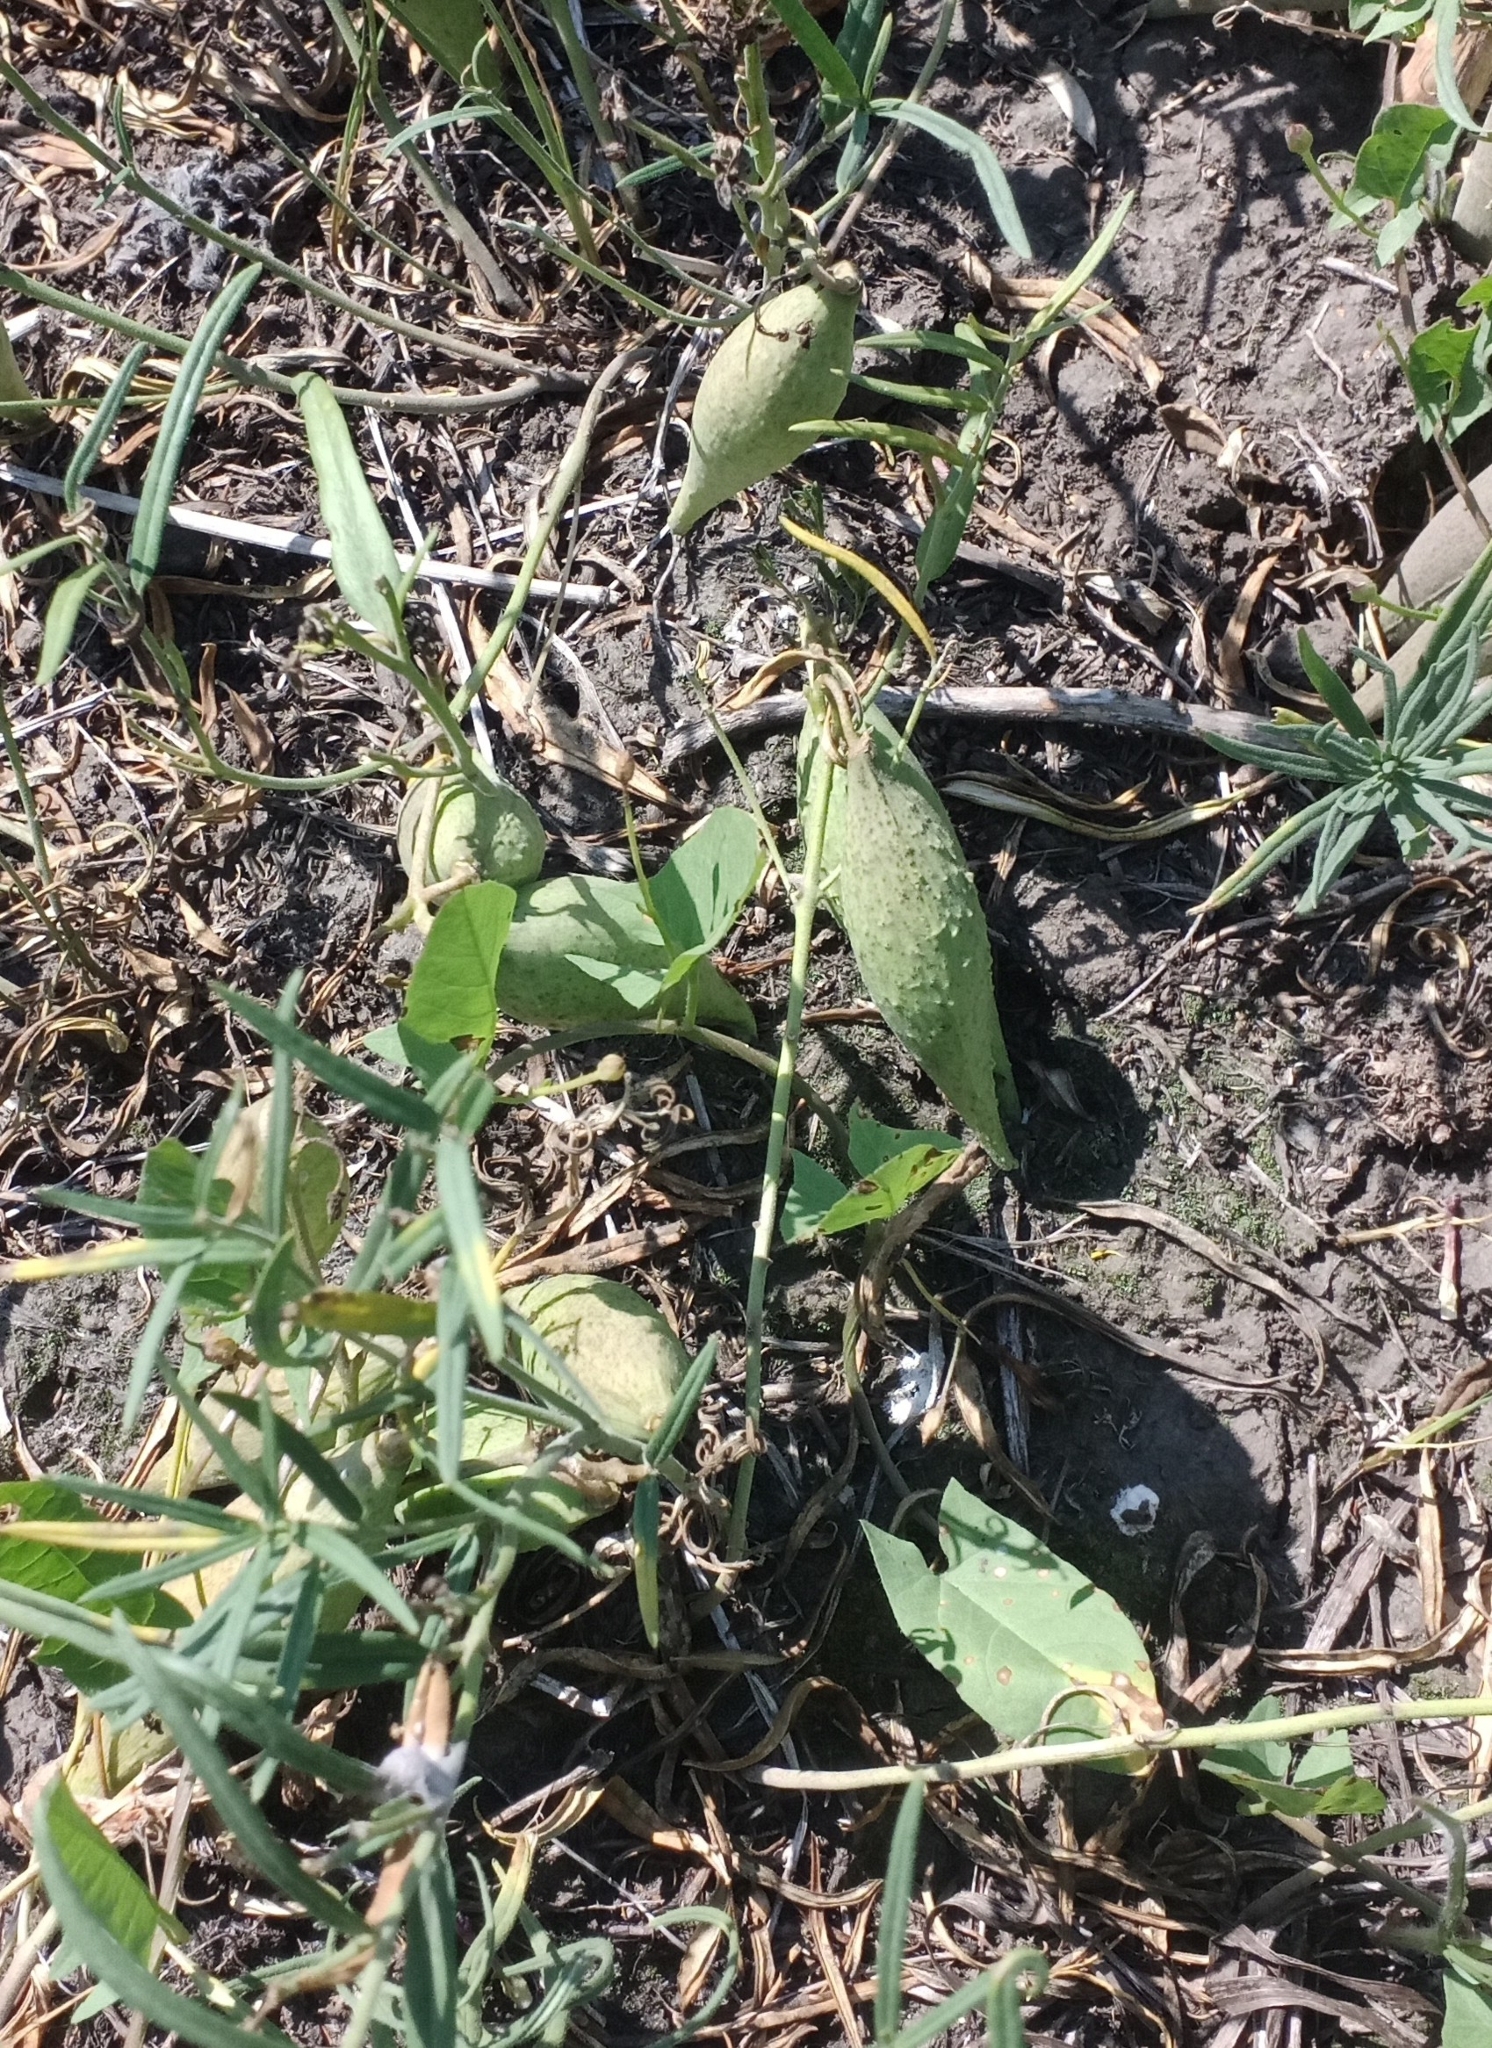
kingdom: Plantae
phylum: Tracheophyta
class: Magnoliopsida
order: Gentianales
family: Apocynaceae
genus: Cynanchum
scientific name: Cynanchum thesioides
